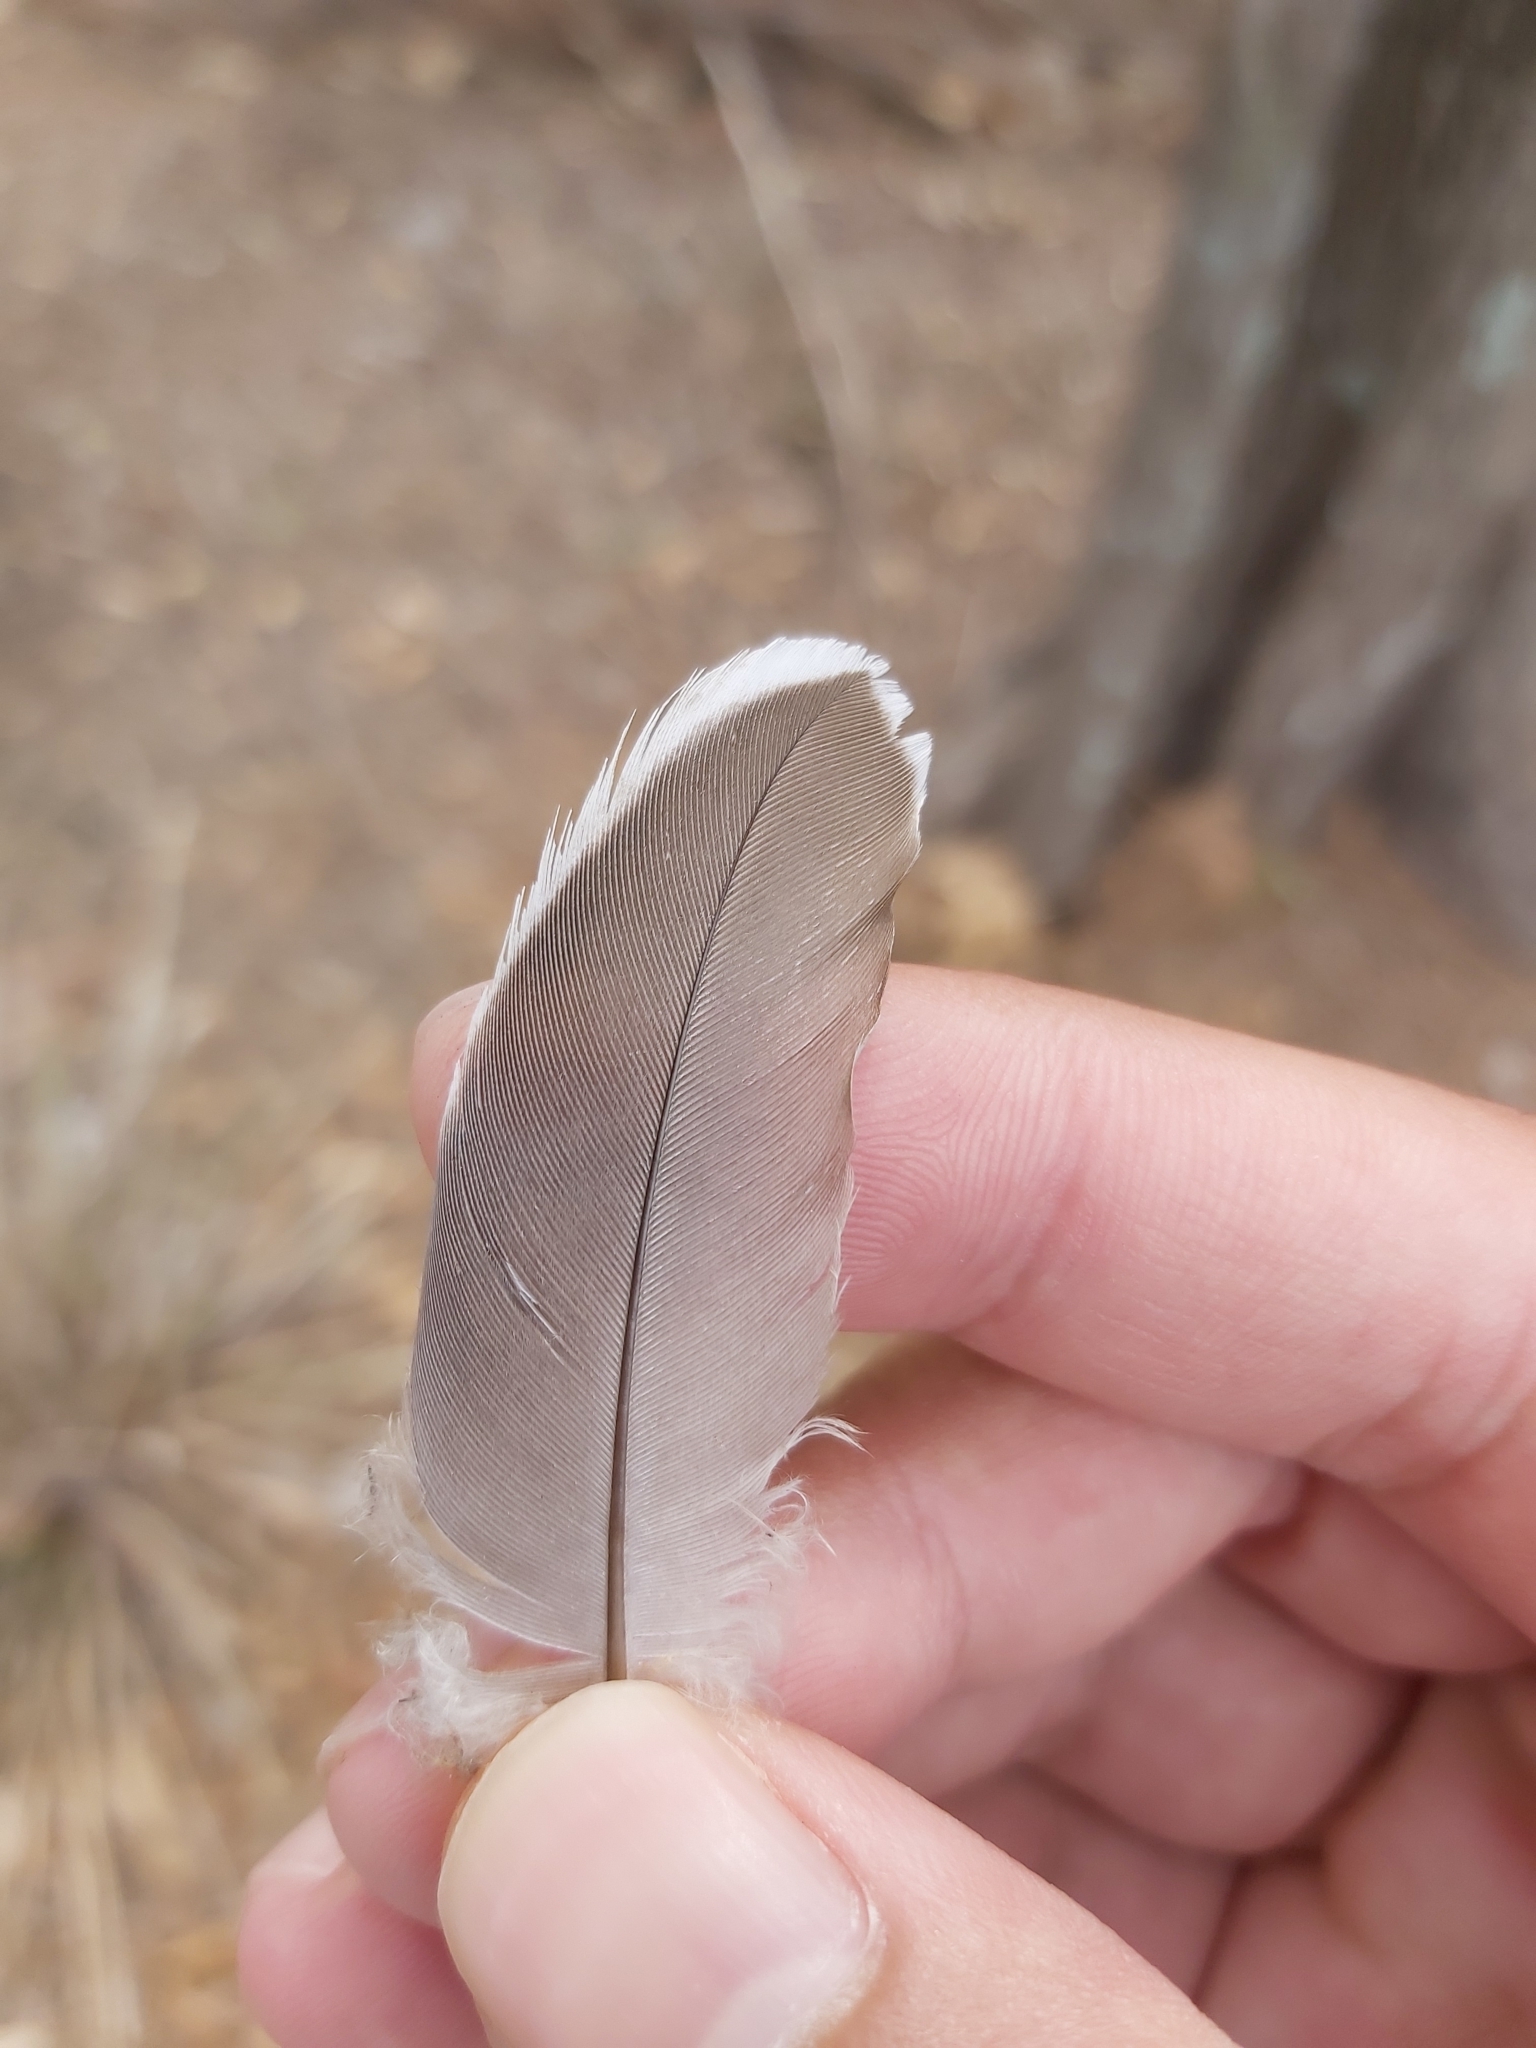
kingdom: Animalia
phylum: Chordata
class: Aves
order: Columbiformes
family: Columbidae
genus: Ocyphaps
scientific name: Ocyphaps lophotes
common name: Crested pigeon
